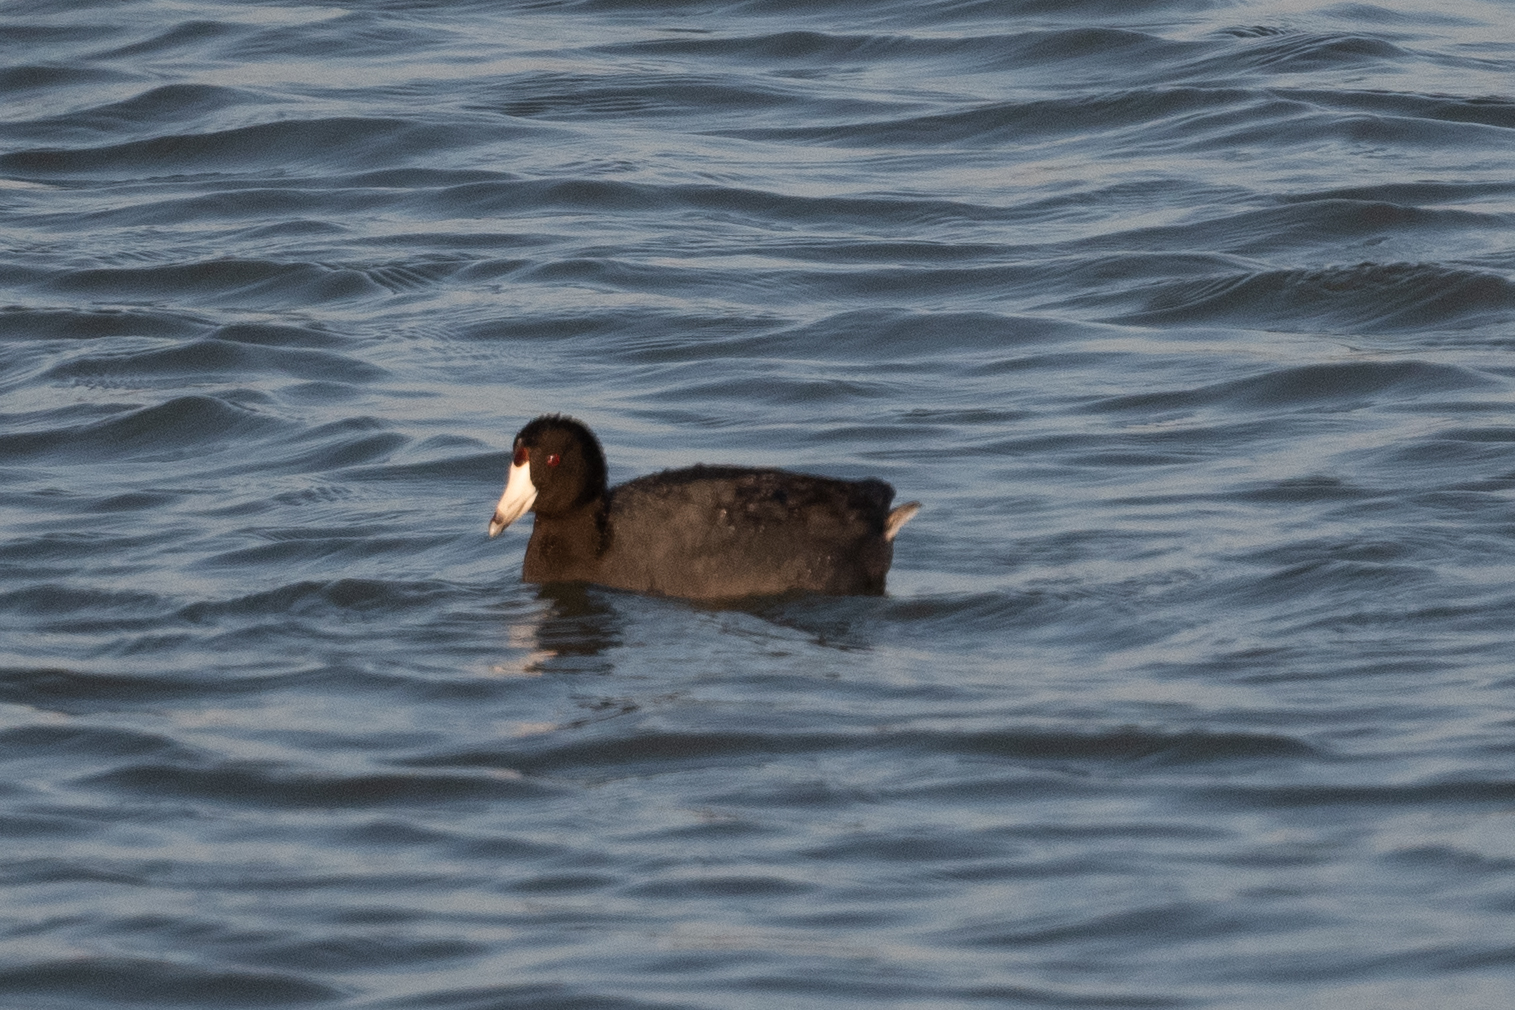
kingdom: Animalia
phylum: Chordata
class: Aves
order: Gruiformes
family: Rallidae
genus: Fulica
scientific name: Fulica americana
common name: American coot
